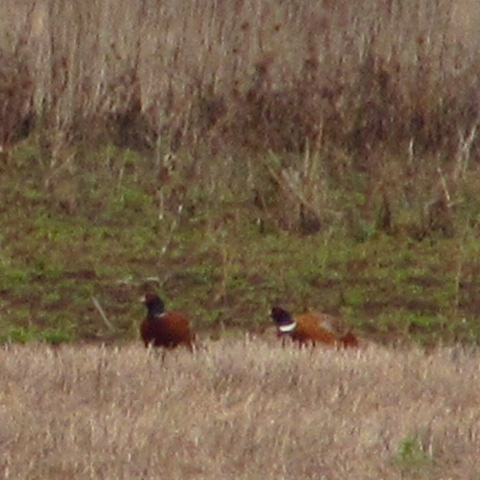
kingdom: Animalia
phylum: Chordata
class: Aves
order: Galliformes
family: Phasianidae
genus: Phasianus
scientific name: Phasianus colchicus
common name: Common pheasant
